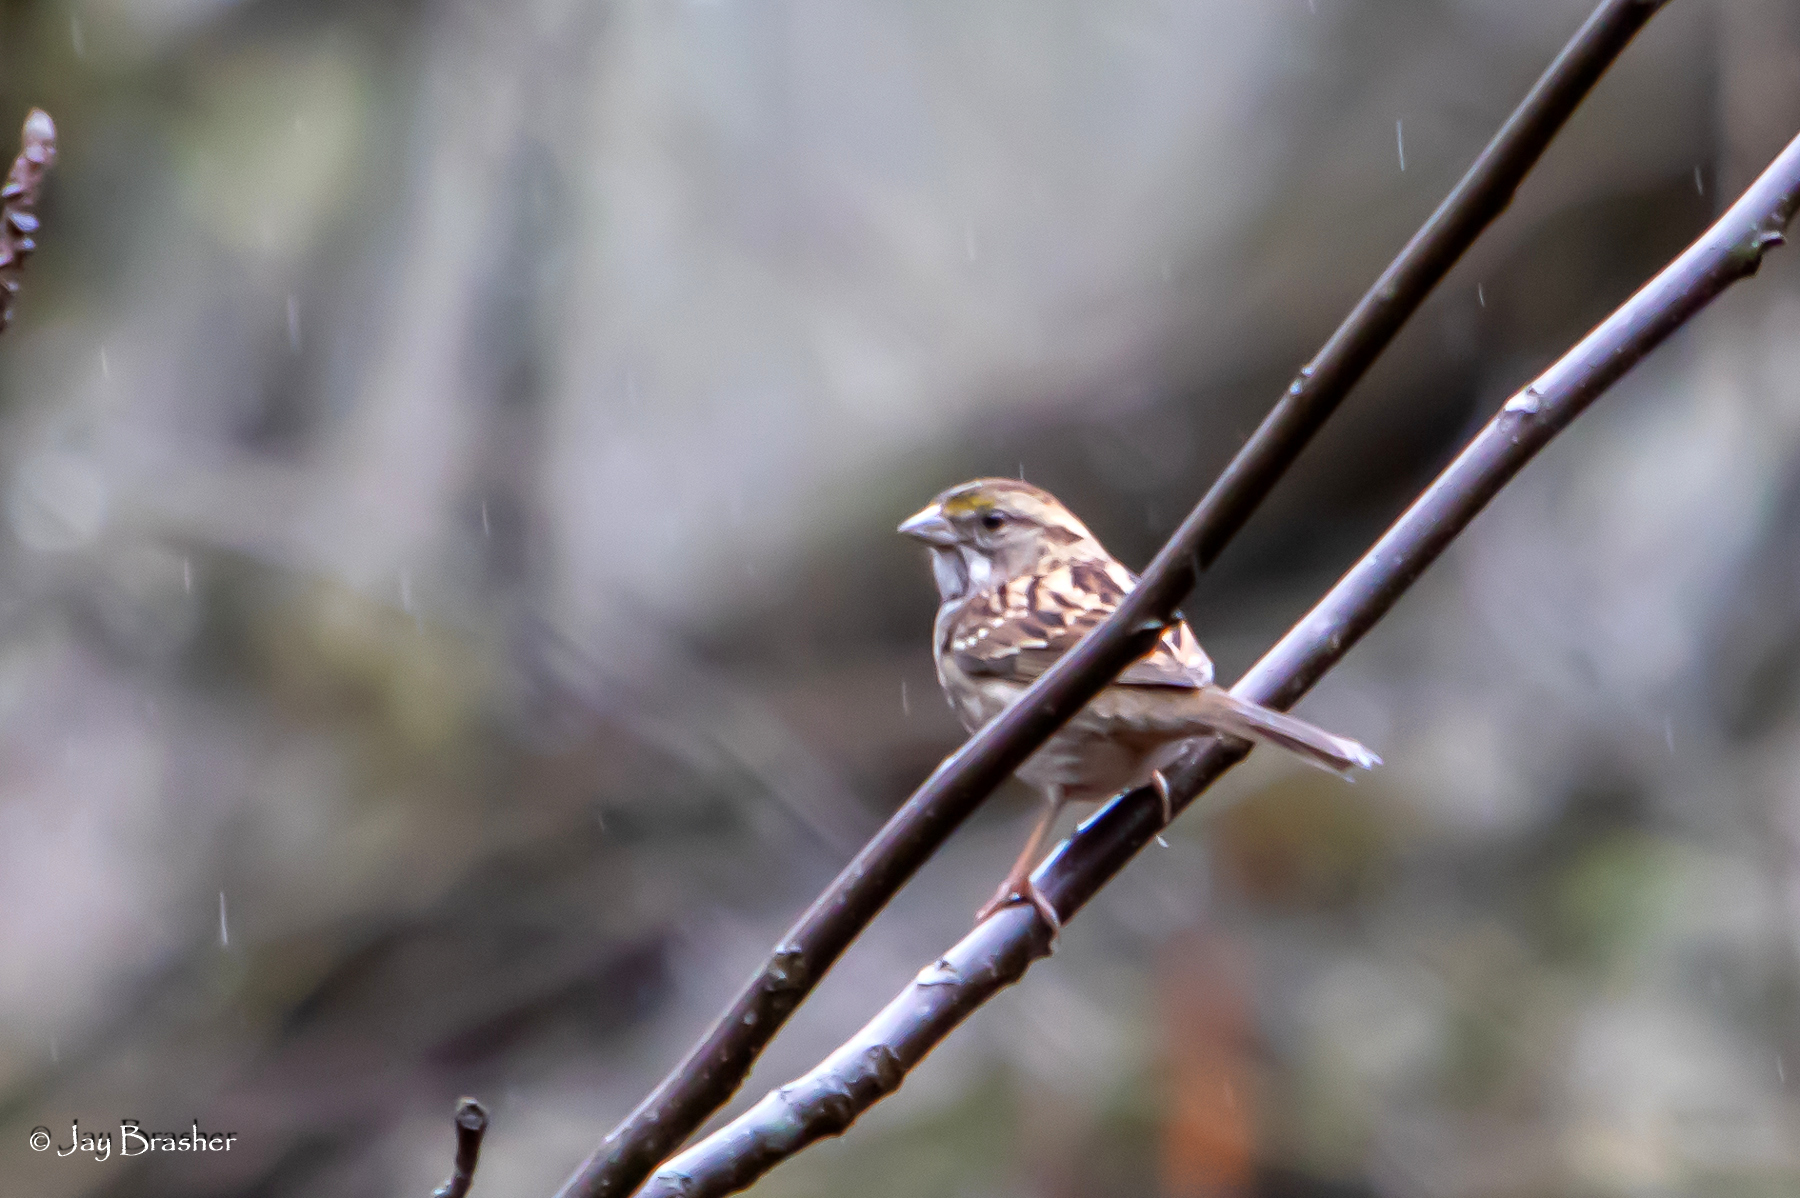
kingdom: Animalia
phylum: Chordata
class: Aves
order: Passeriformes
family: Passerellidae
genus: Zonotrichia
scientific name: Zonotrichia albicollis
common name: White-throated sparrow
